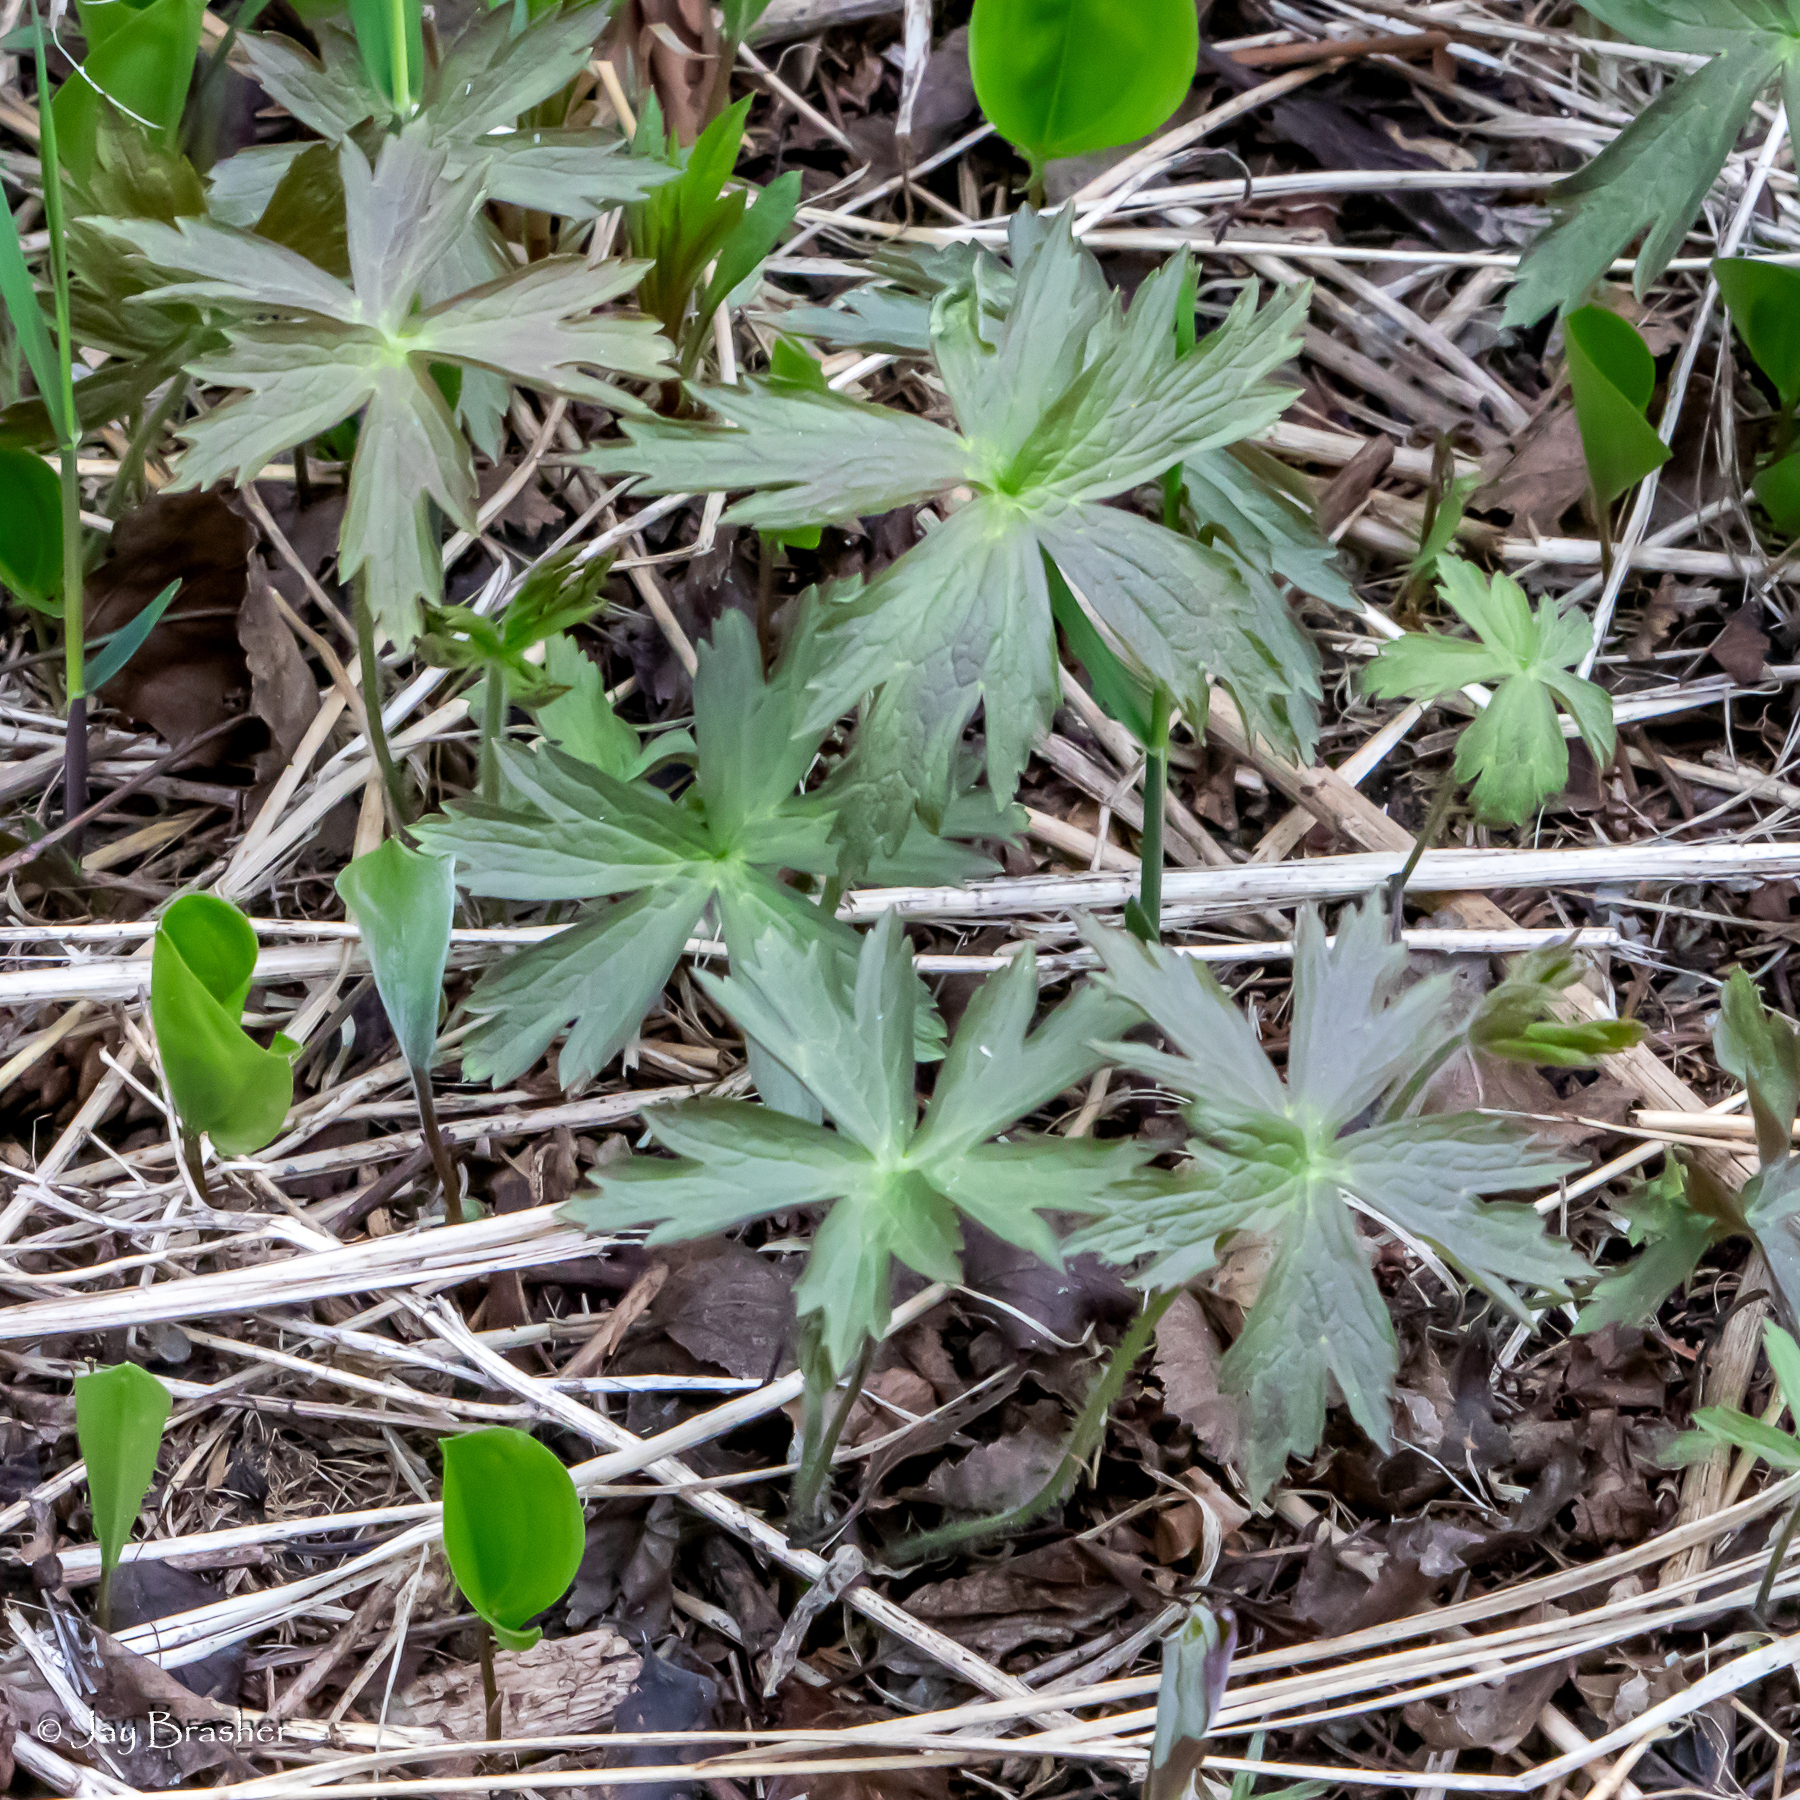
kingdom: Plantae
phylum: Tracheophyta
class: Magnoliopsida
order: Ranunculales
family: Ranunculaceae
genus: Anemonastrum
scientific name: Anemonastrum canadense
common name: Canada anemone
